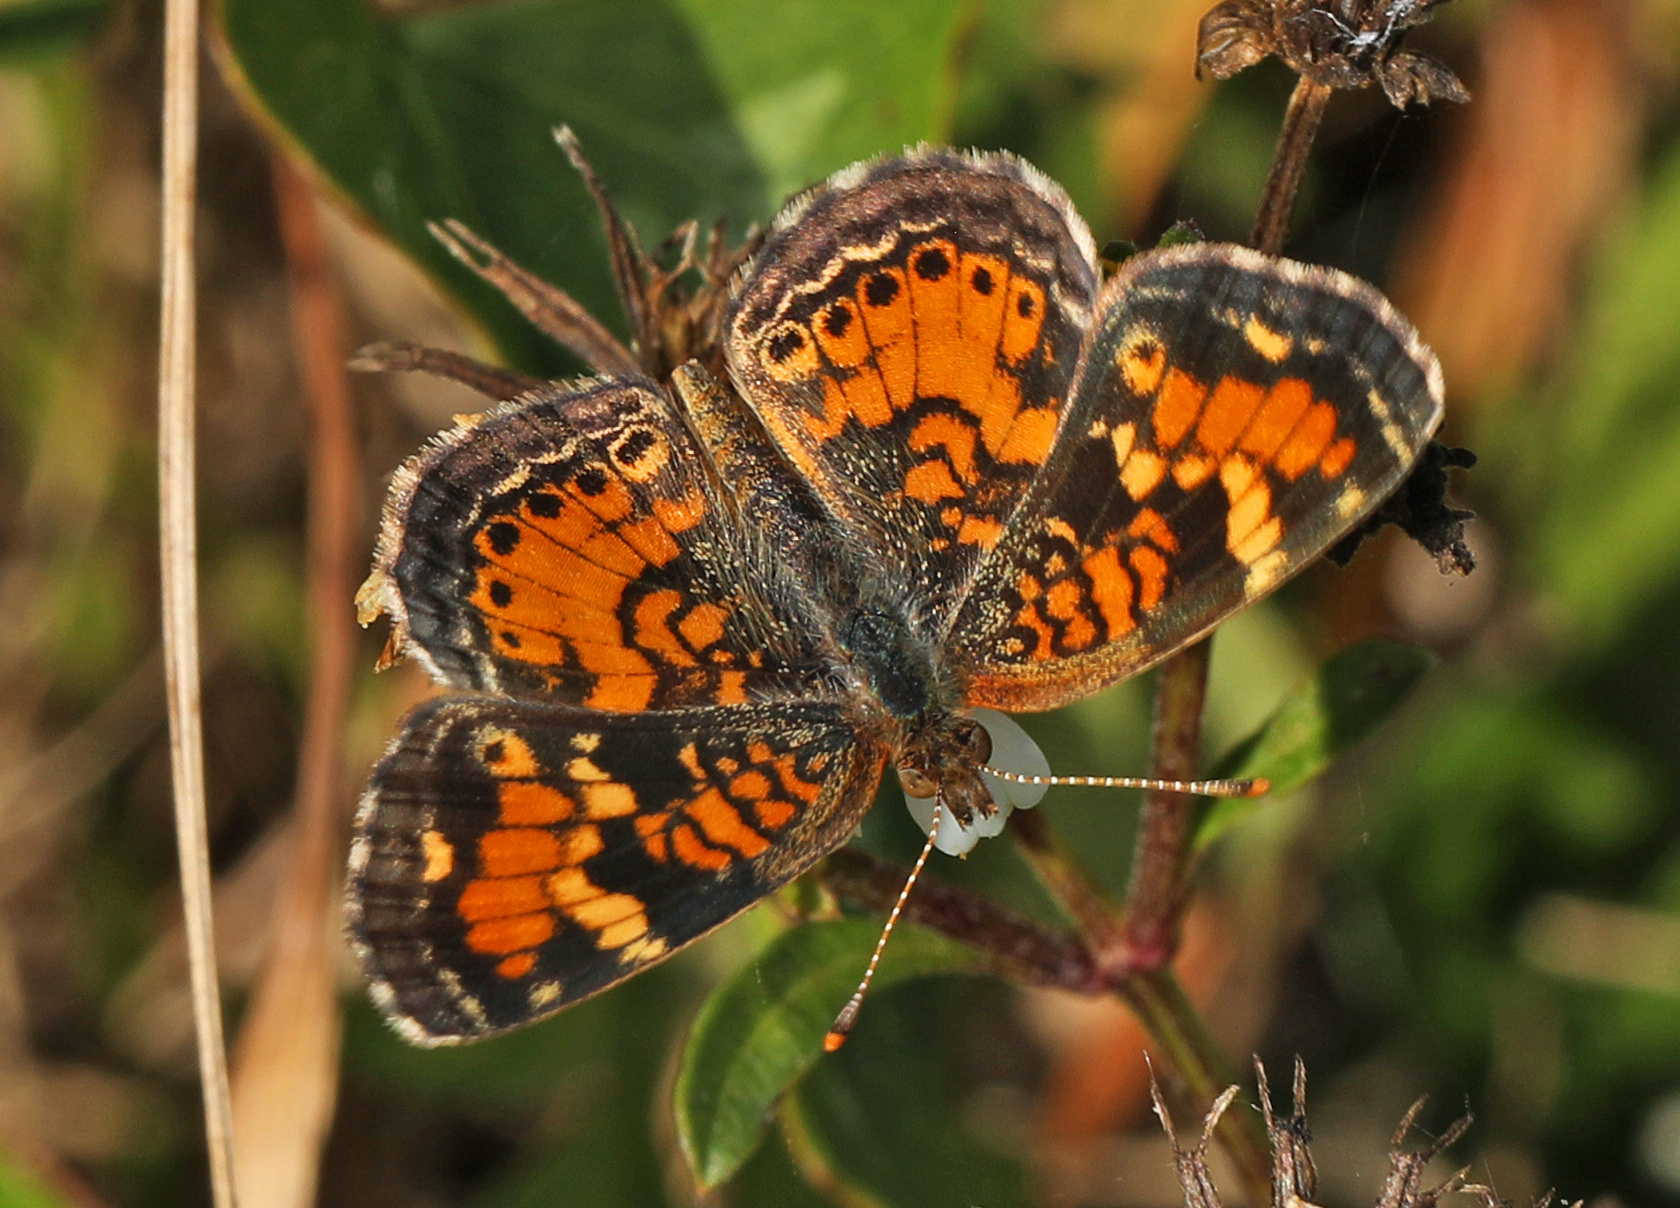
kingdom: Animalia
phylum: Arthropoda
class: Insecta
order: Lepidoptera
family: Nymphalidae
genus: Phyciodes
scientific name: Phyciodes phaon
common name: Phaon crescent
